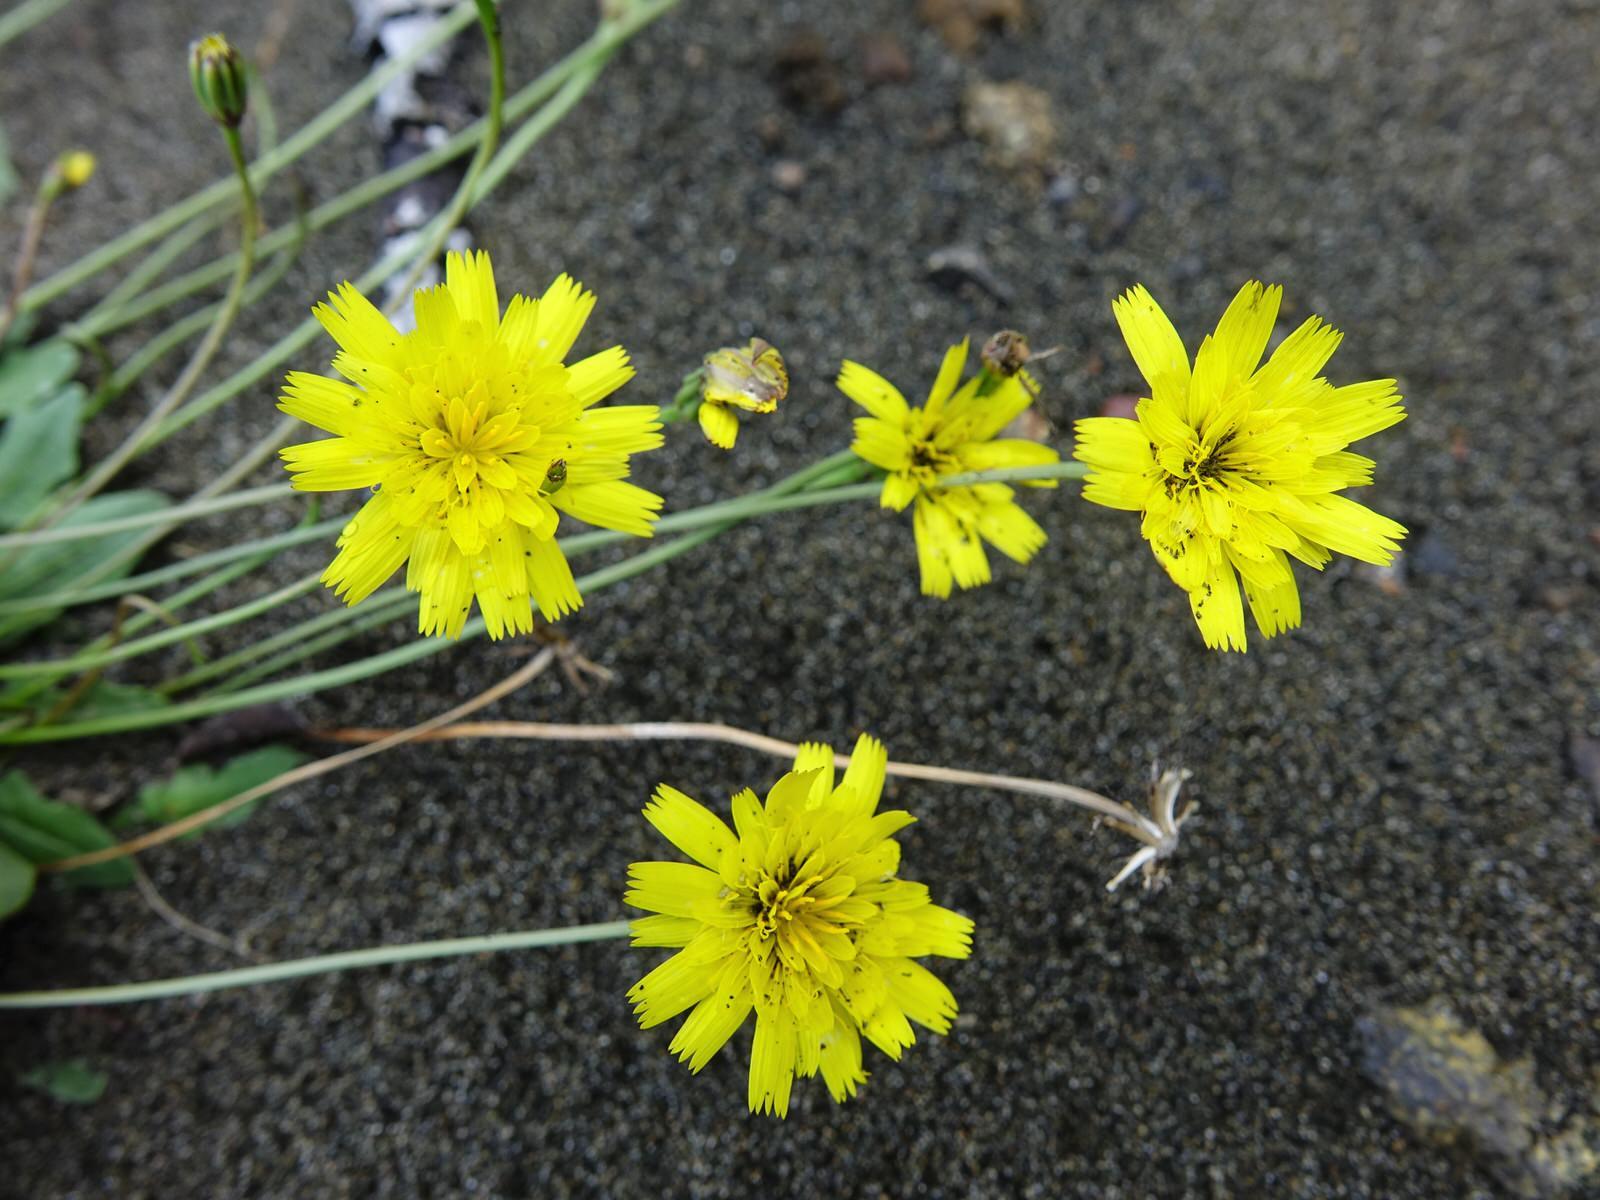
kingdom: Plantae
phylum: Tracheophyta
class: Magnoliopsida
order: Asterales
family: Asteraceae
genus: Thrincia
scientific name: Thrincia saxatilis
